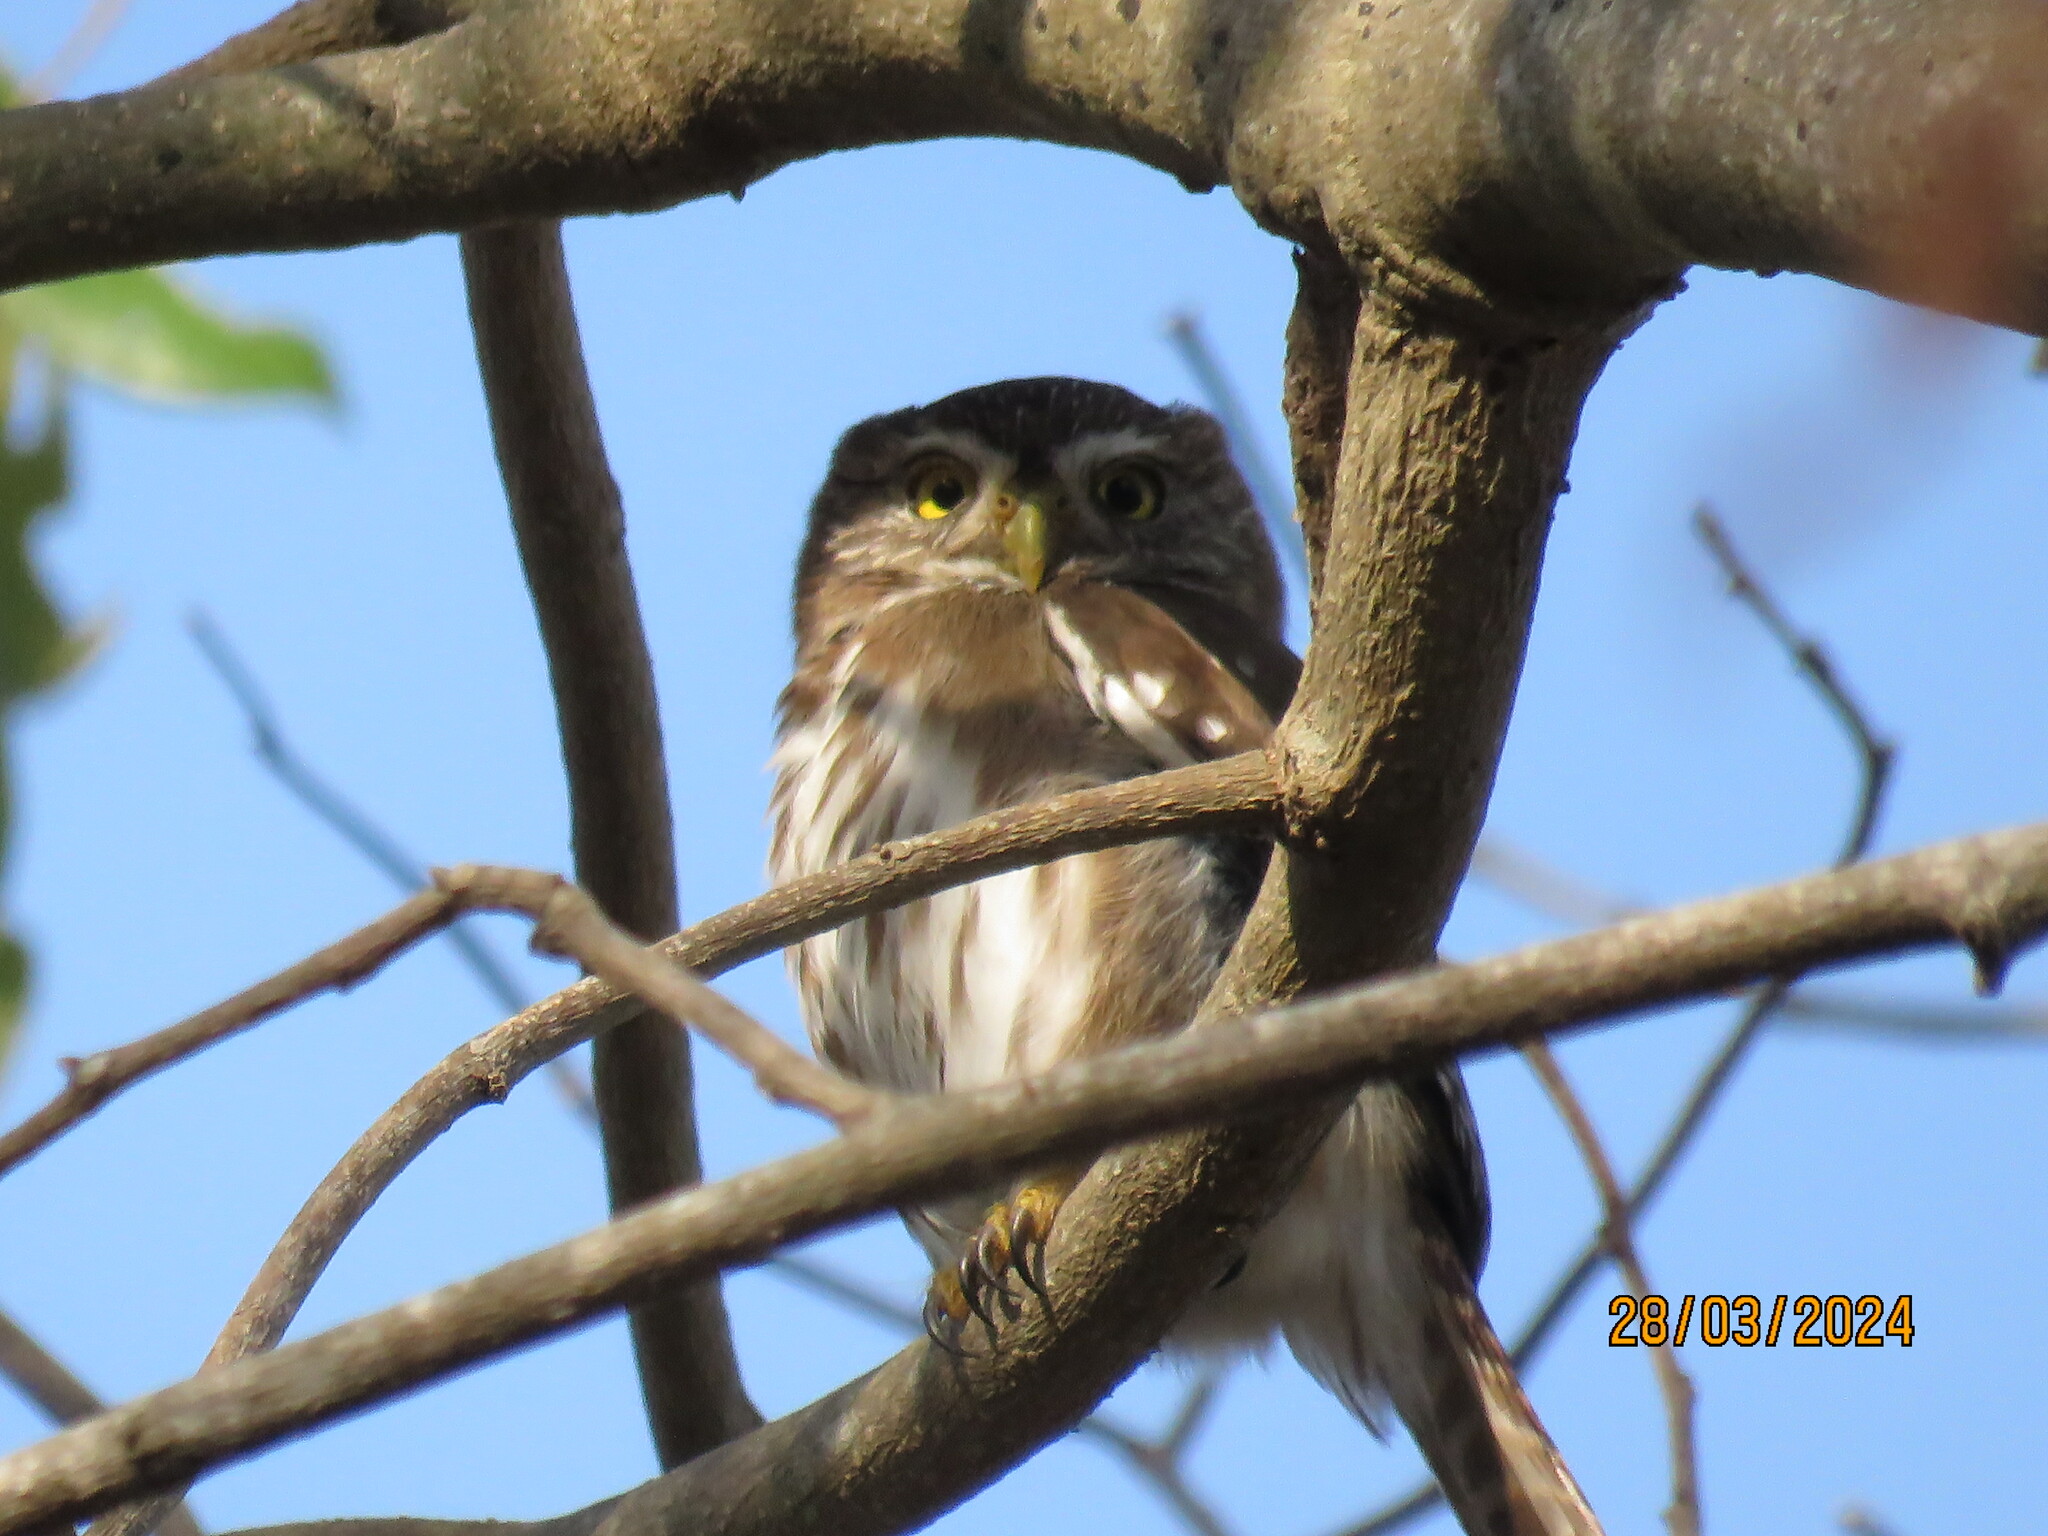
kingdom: Animalia
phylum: Chordata
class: Aves
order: Strigiformes
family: Strigidae
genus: Glaucidium
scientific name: Glaucidium brasilianum
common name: Ferruginous pygmy-owl
